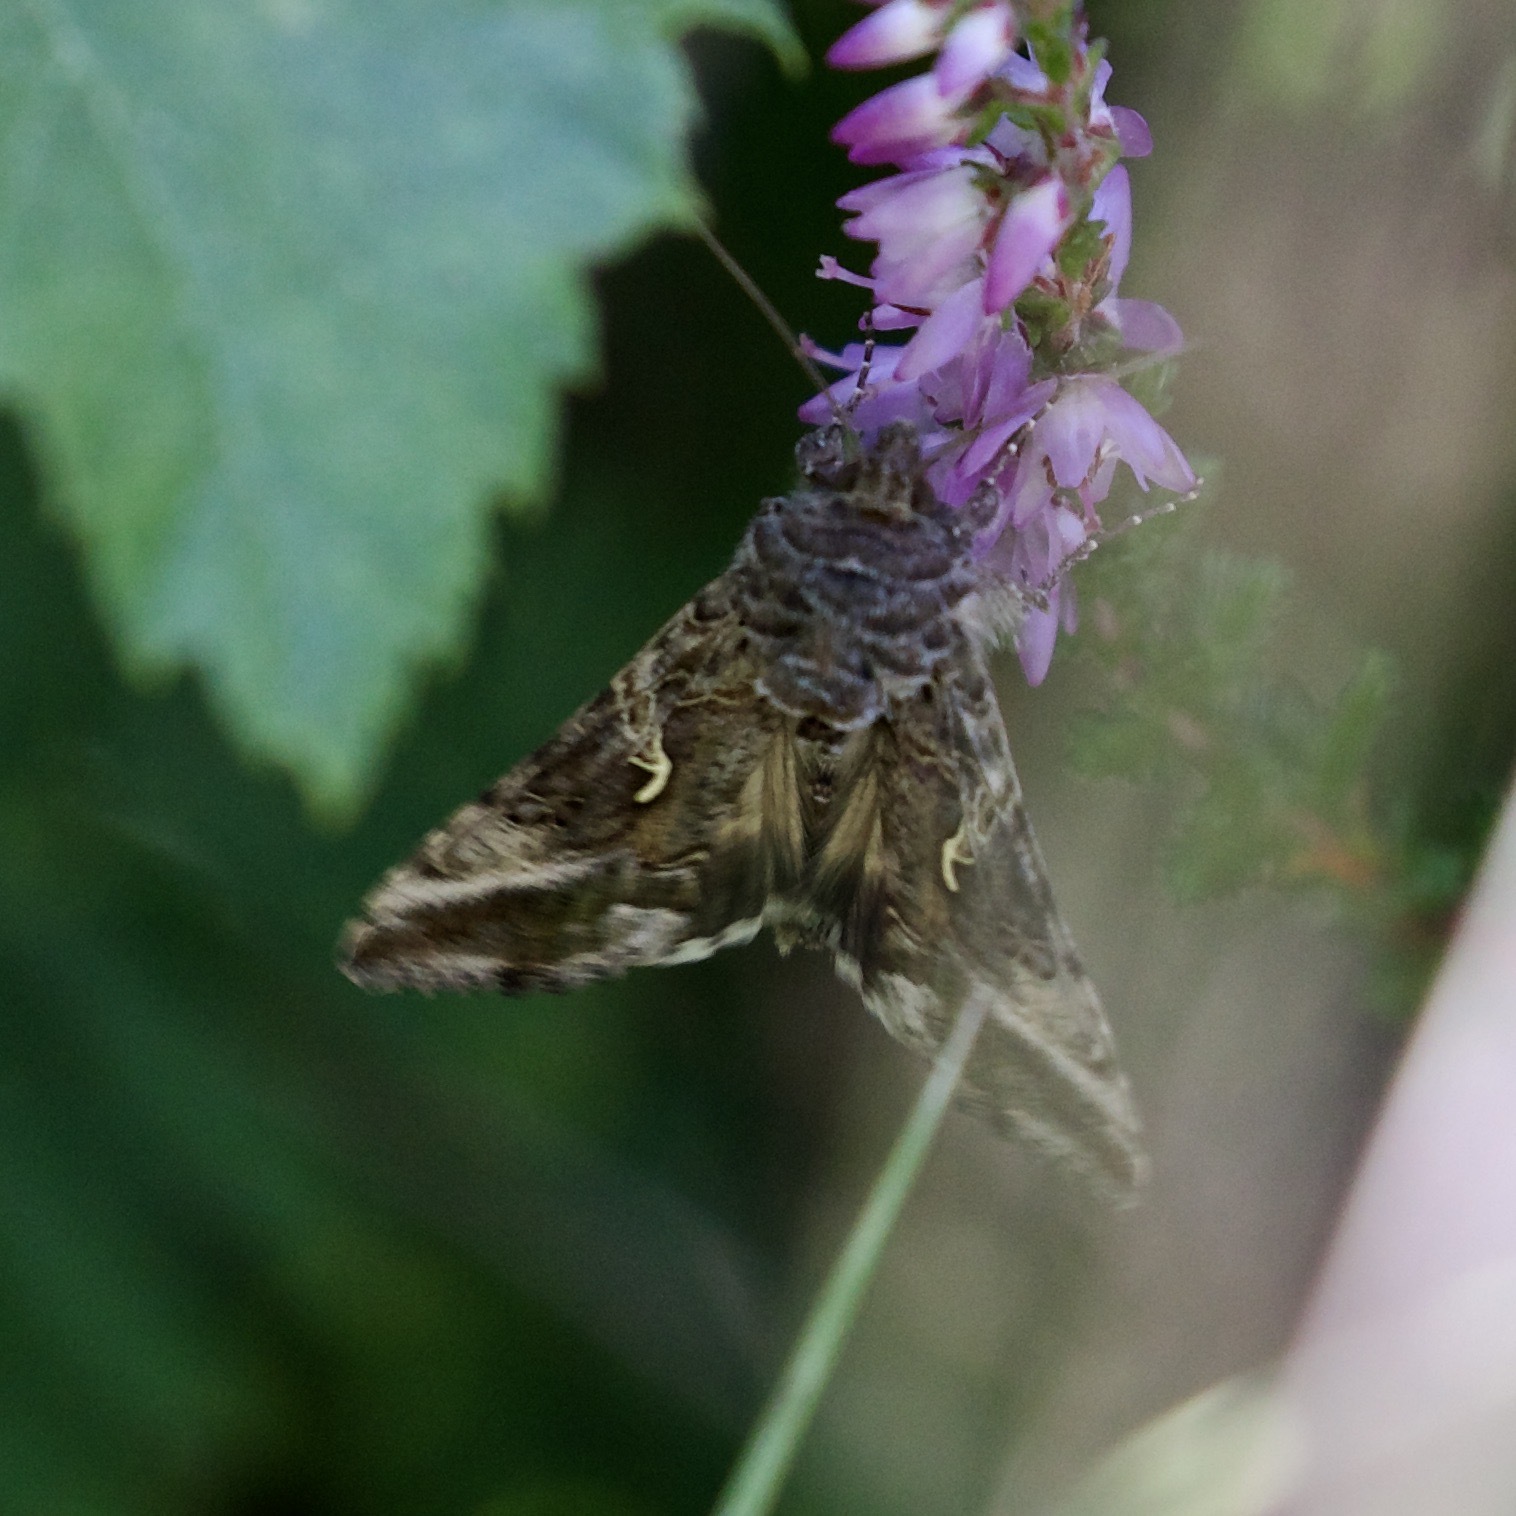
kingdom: Animalia
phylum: Arthropoda
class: Insecta
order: Lepidoptera
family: Noctuidae
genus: Autographa
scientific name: Autographa gamma
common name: Silver y
